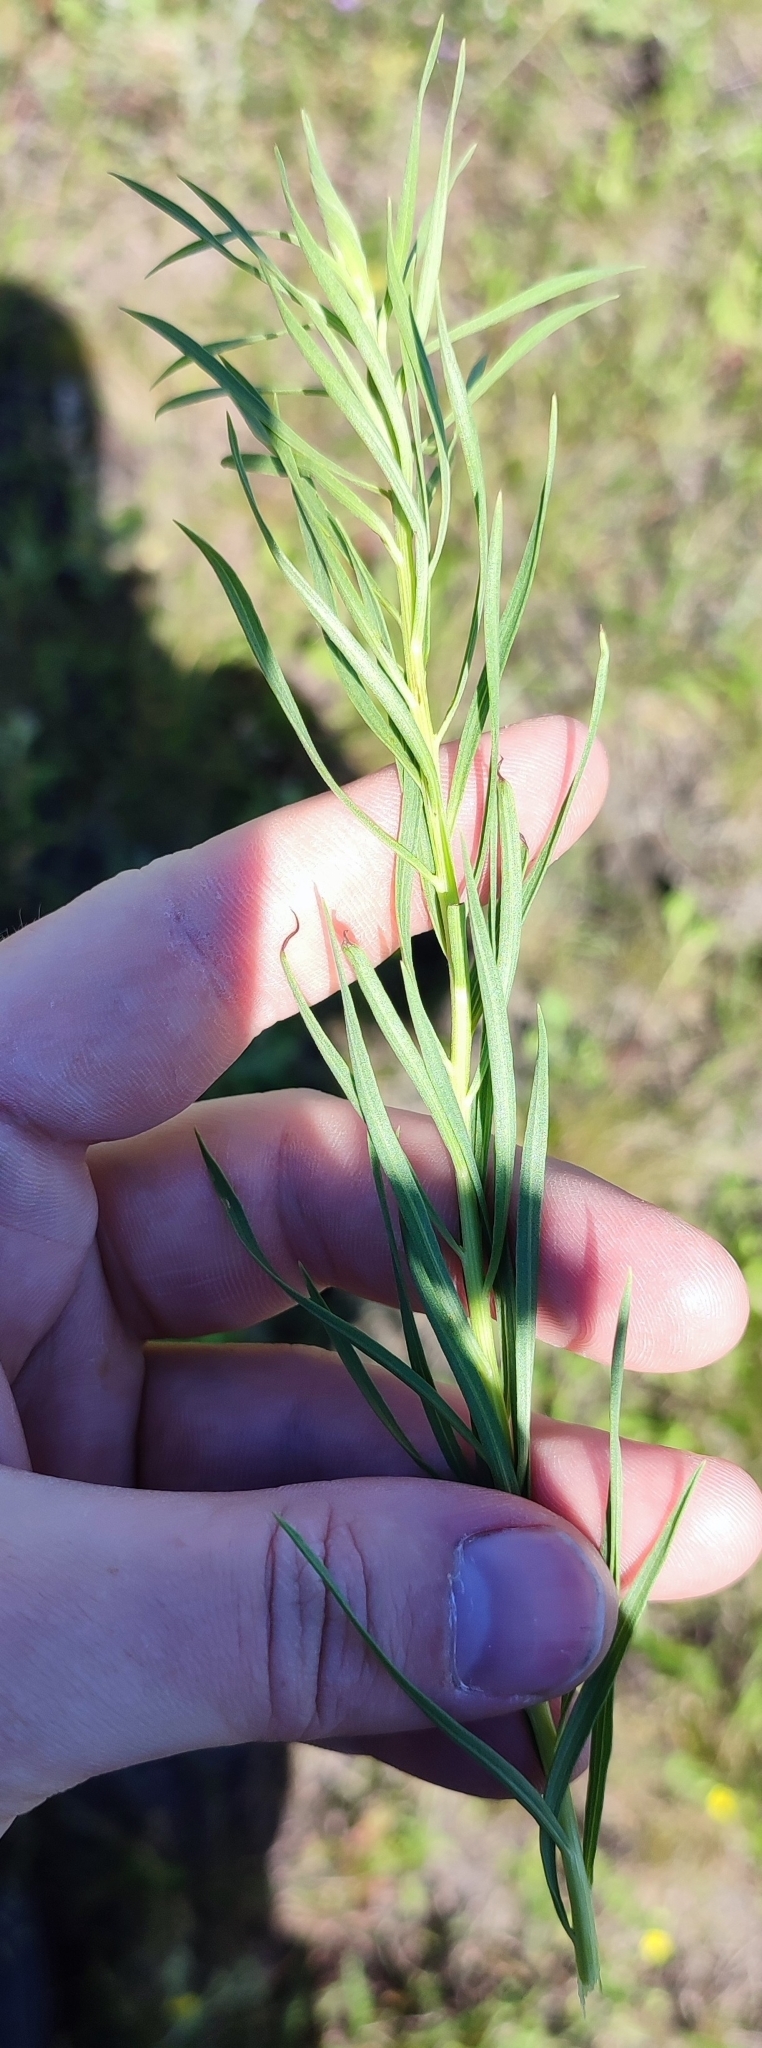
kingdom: Plantae
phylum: Tracheophyta
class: Magnoliopsida
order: Asterales
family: Asteraceae
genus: Artemisia
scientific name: Artemisia dracunculus
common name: Tarragon
